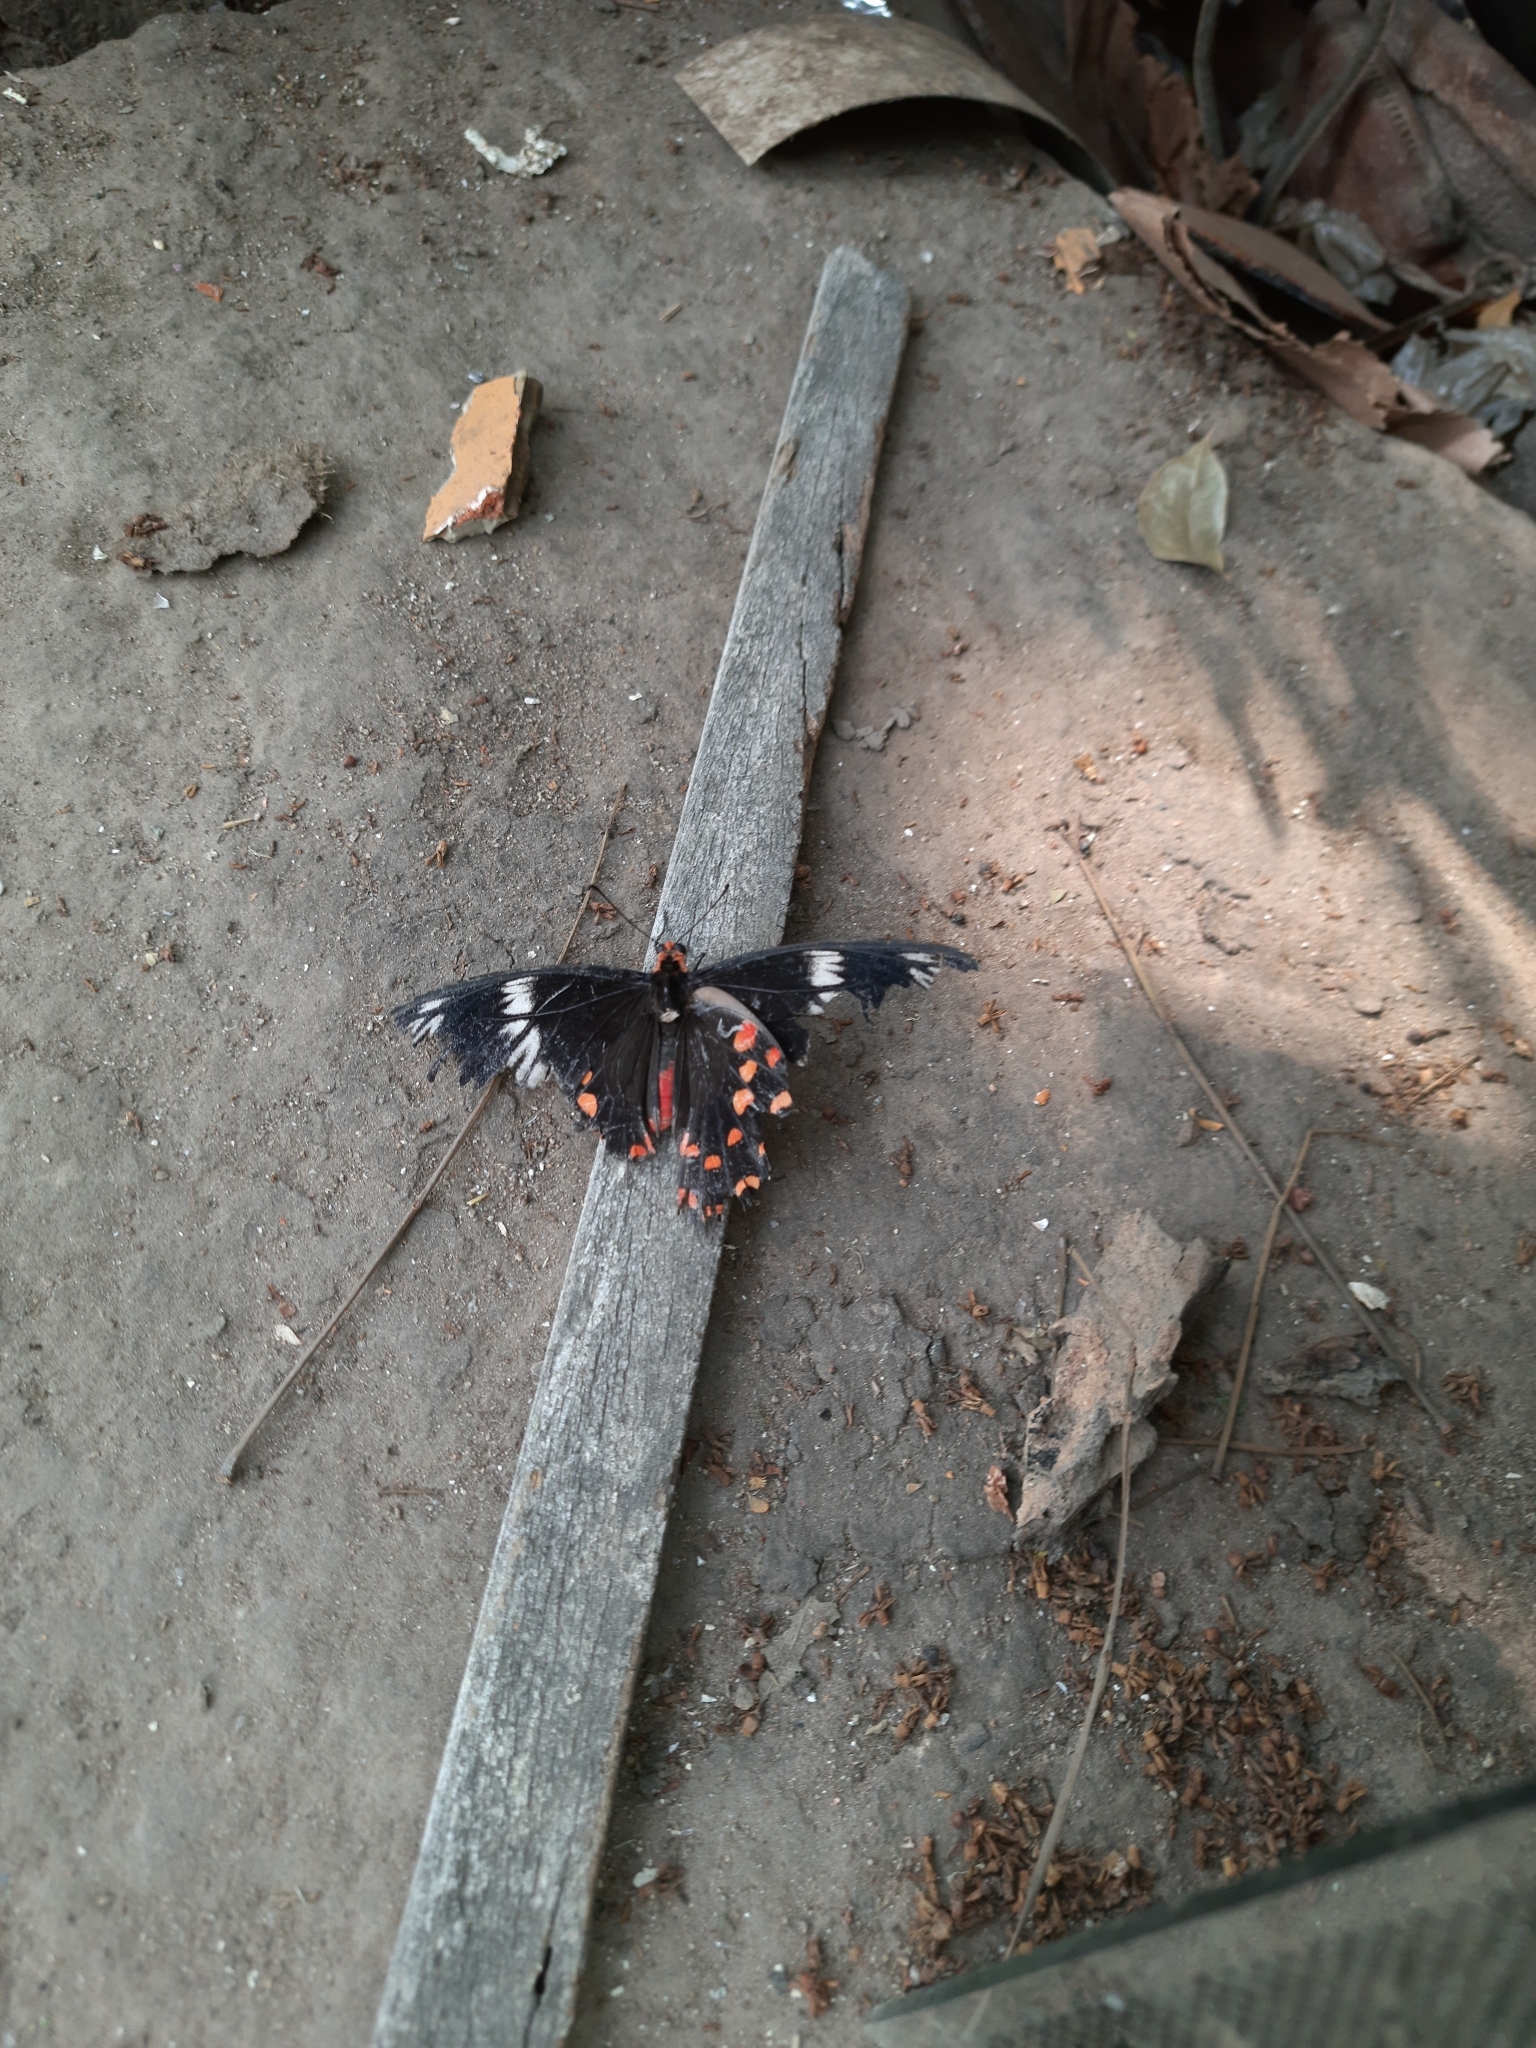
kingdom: Animalia
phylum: Arthropoda
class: Insecta
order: Lepidoptera
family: Papilionidae
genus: Pachliopta
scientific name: Pachliopta hector
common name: Crimson rose
